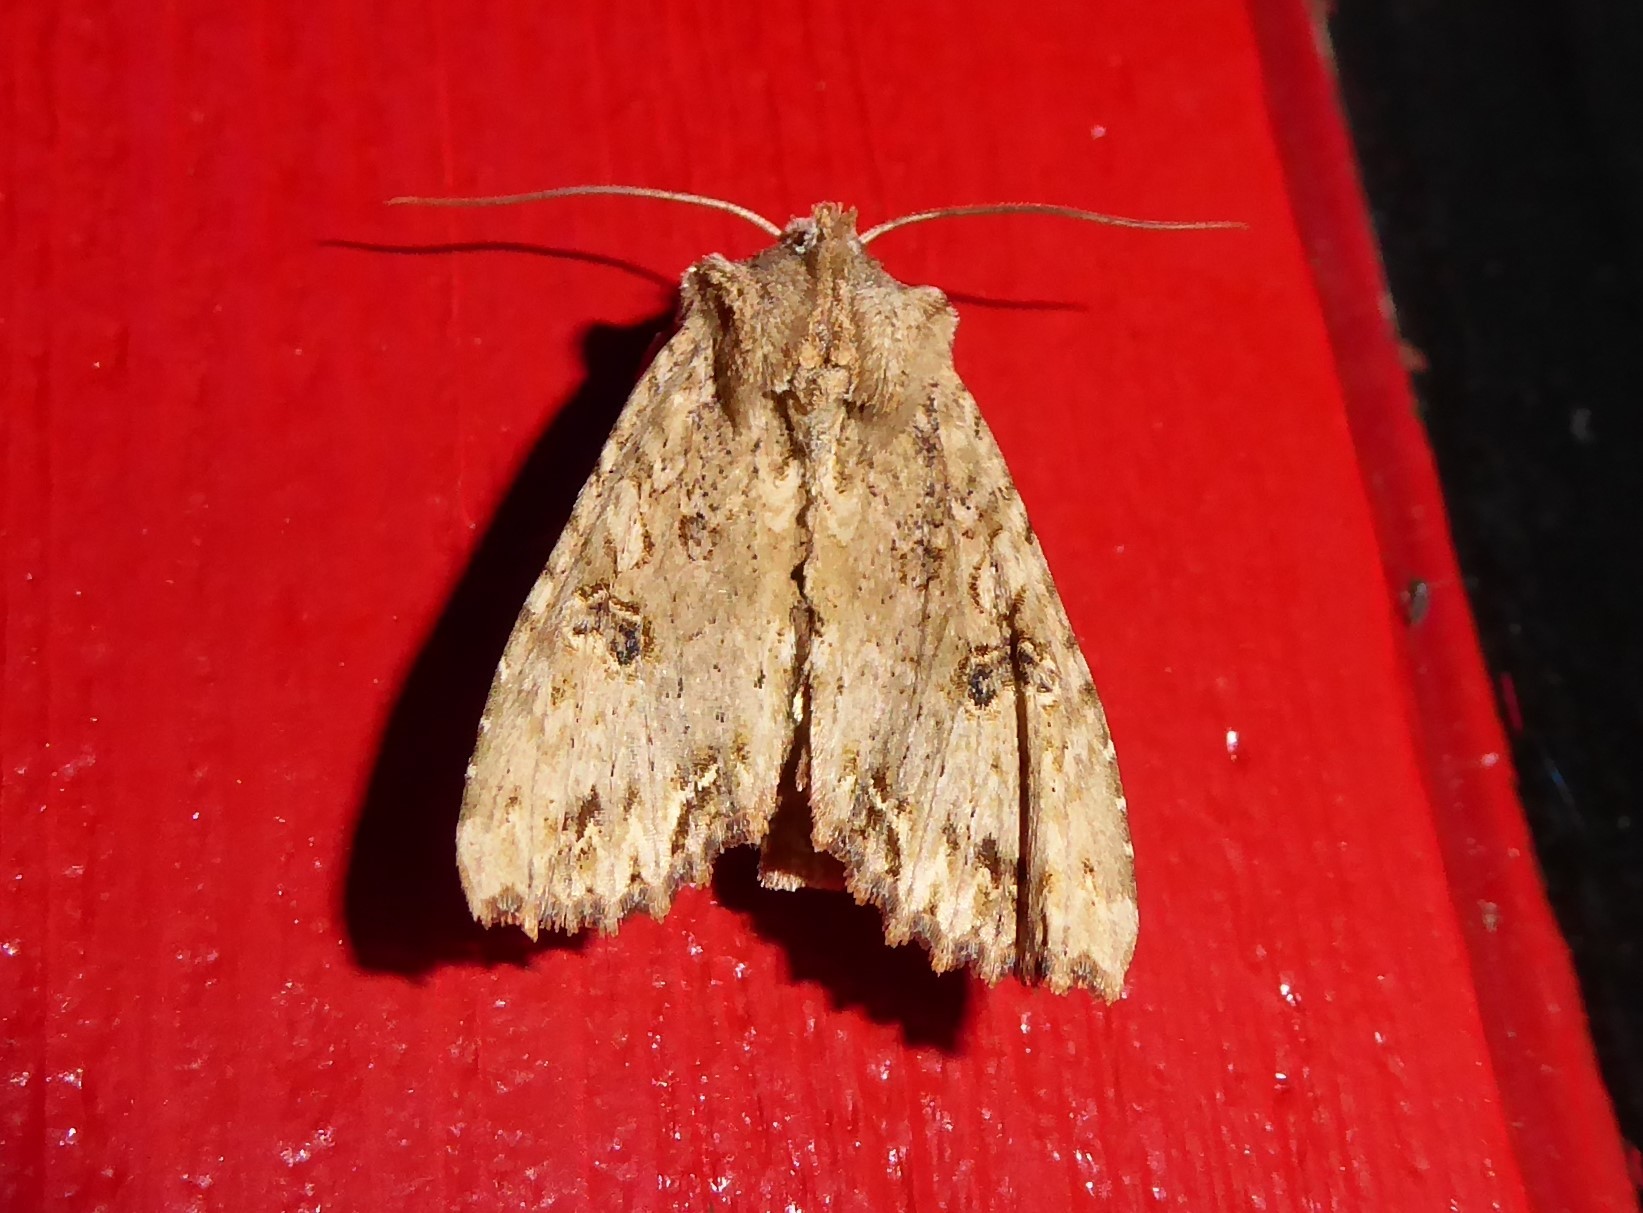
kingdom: Animalia
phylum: Arthropoda
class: Insecta
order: Lepidoptera
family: Noctuidae
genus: Ichneutica
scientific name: Ichneutica
